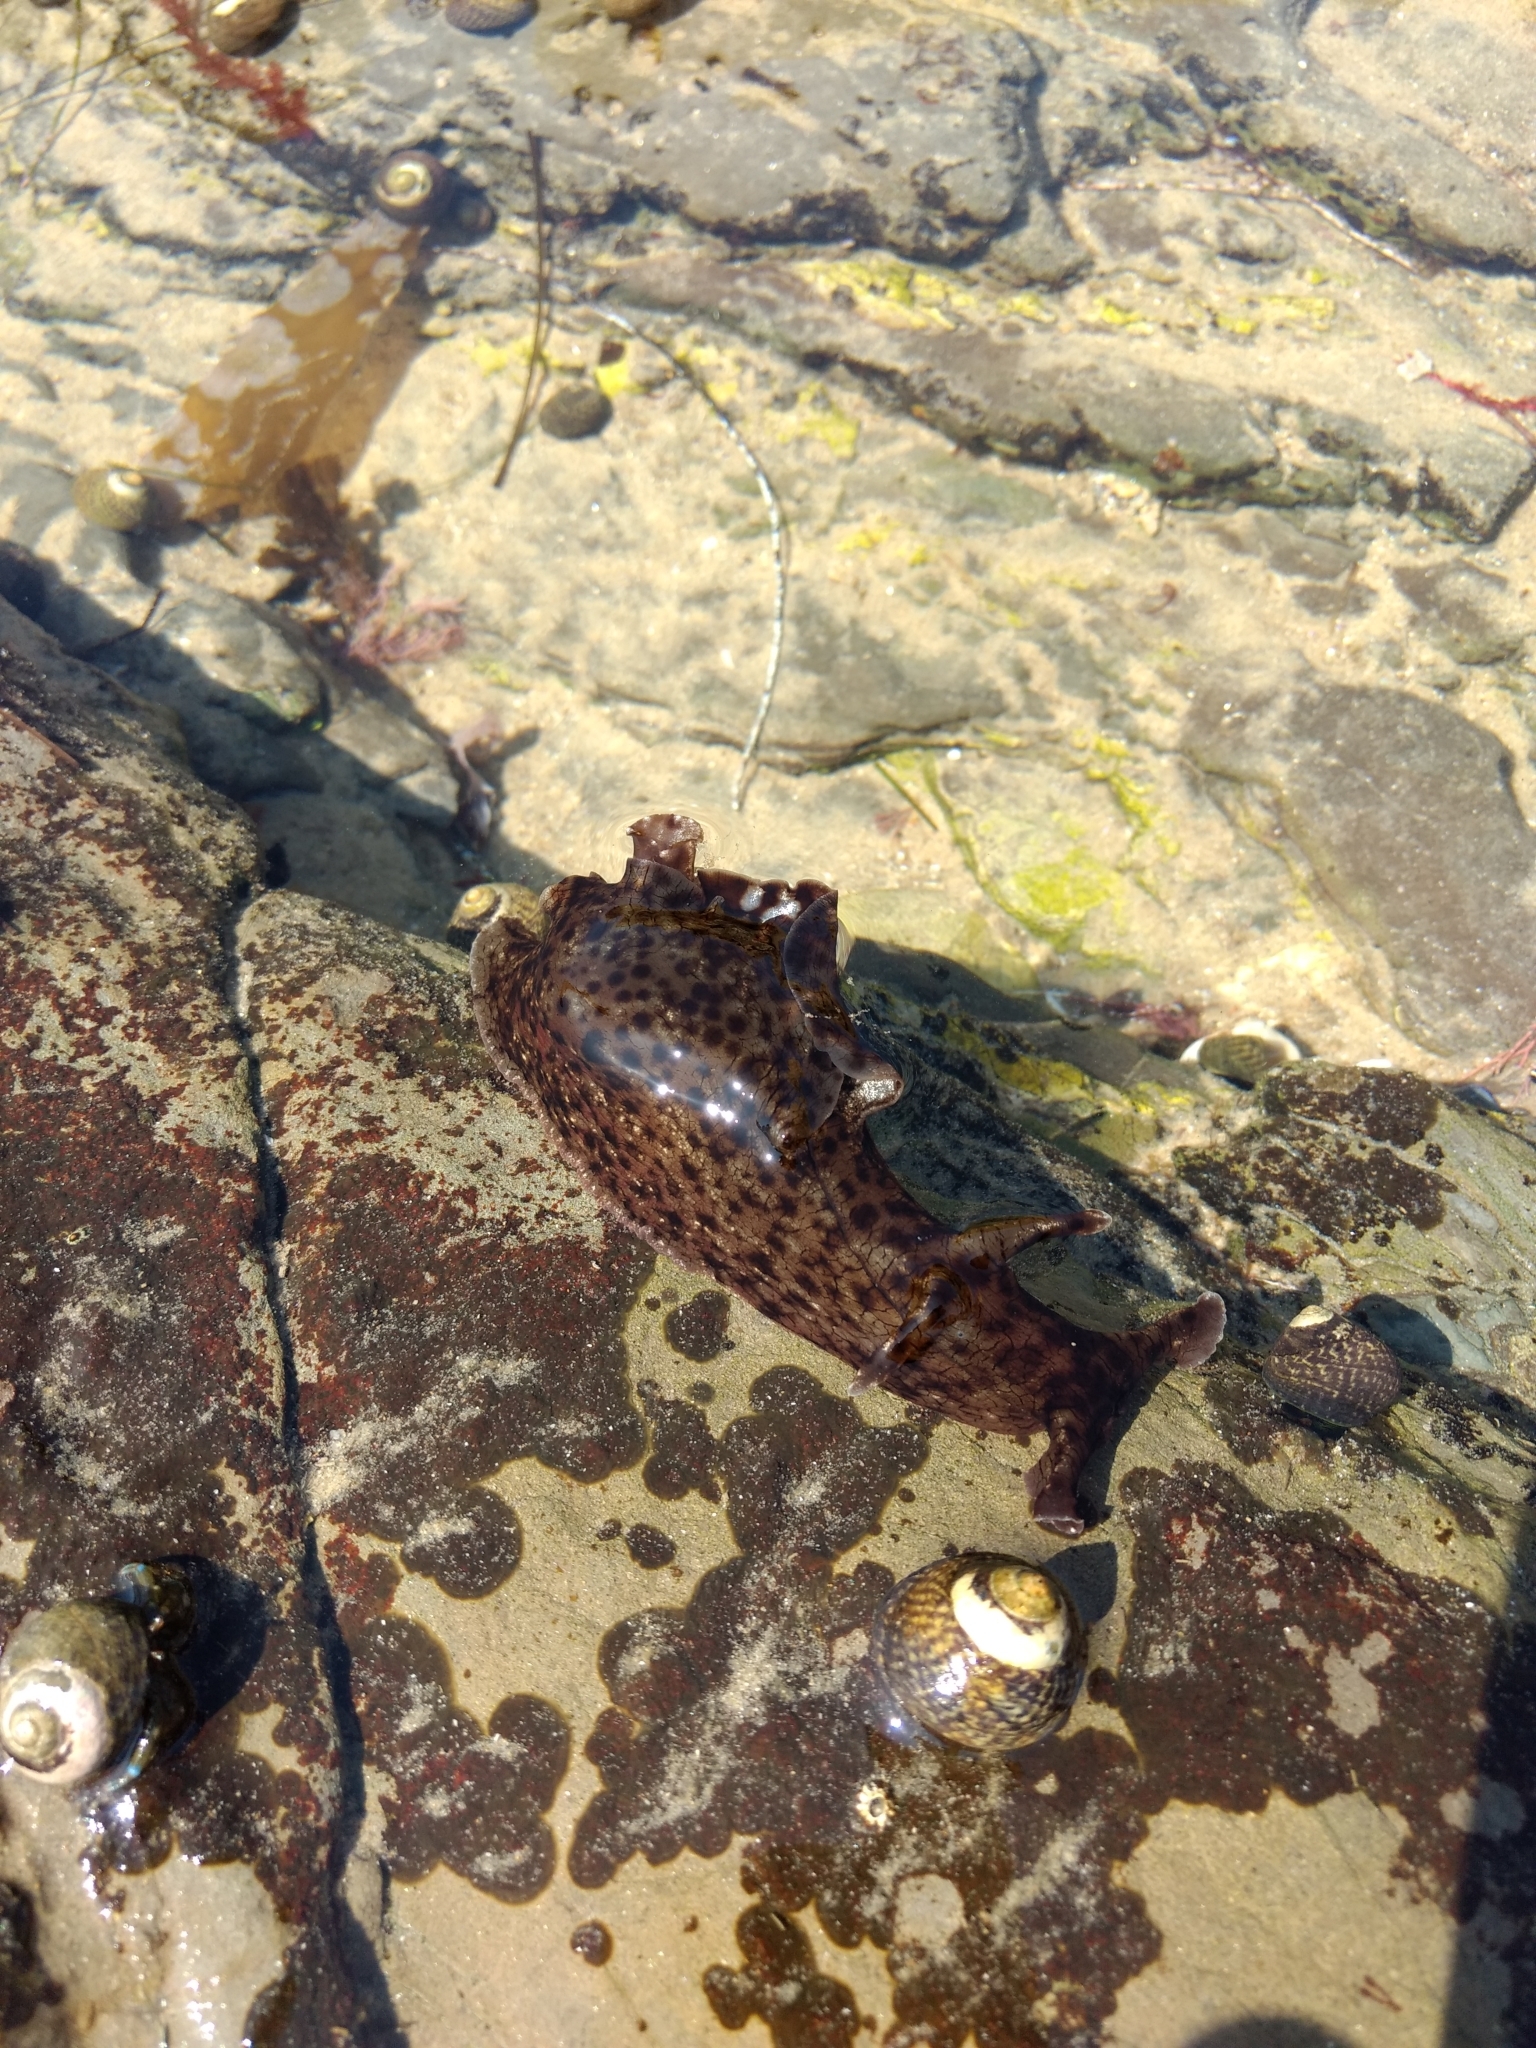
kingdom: Animalia
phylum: Mollusca
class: Gastropoda
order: Aplysiida
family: Aplysiidae
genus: Aplysia
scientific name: Aplysia californica
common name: California seahare
